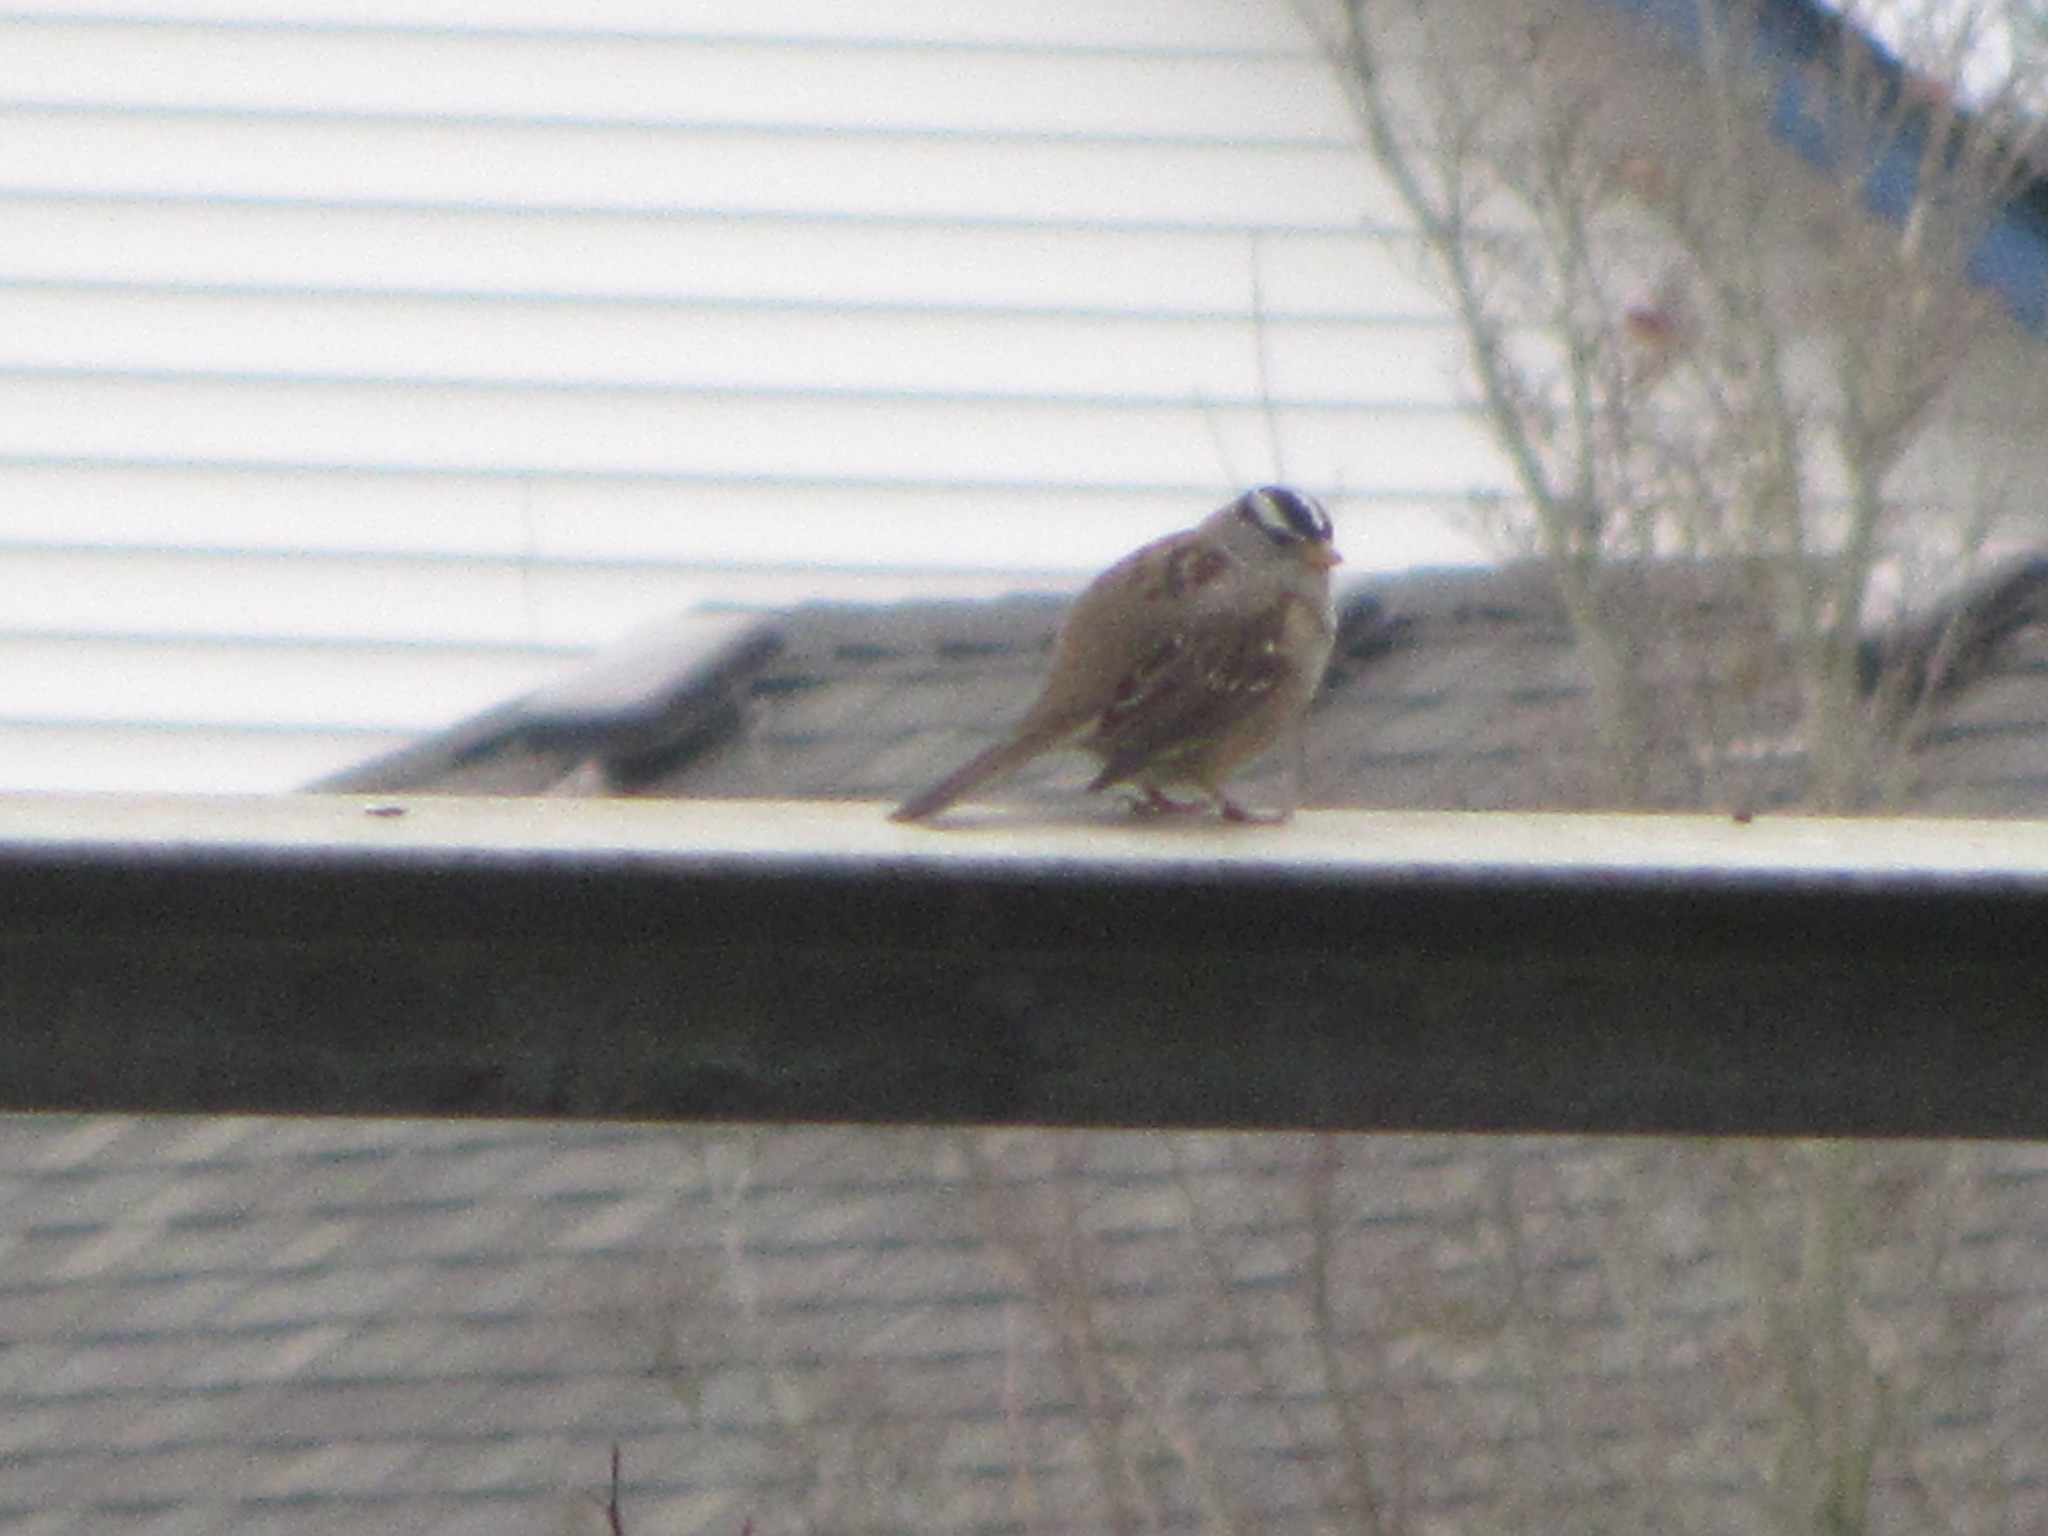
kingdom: Animalia
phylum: Chordata
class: Aves
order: Passeriformes
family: Passerellidae
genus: Zonotrichia
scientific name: Zonotrichia leucophrys
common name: White-crowned sparrow
